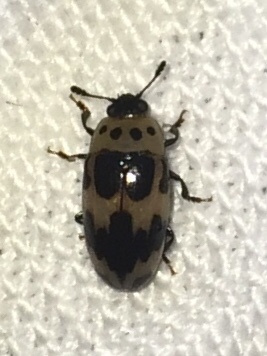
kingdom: Animalia
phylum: Arthropoda
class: Insecta
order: Coleoptera
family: Erotylidae
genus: Ischyrus
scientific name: Ischyrus quadripunctatus
